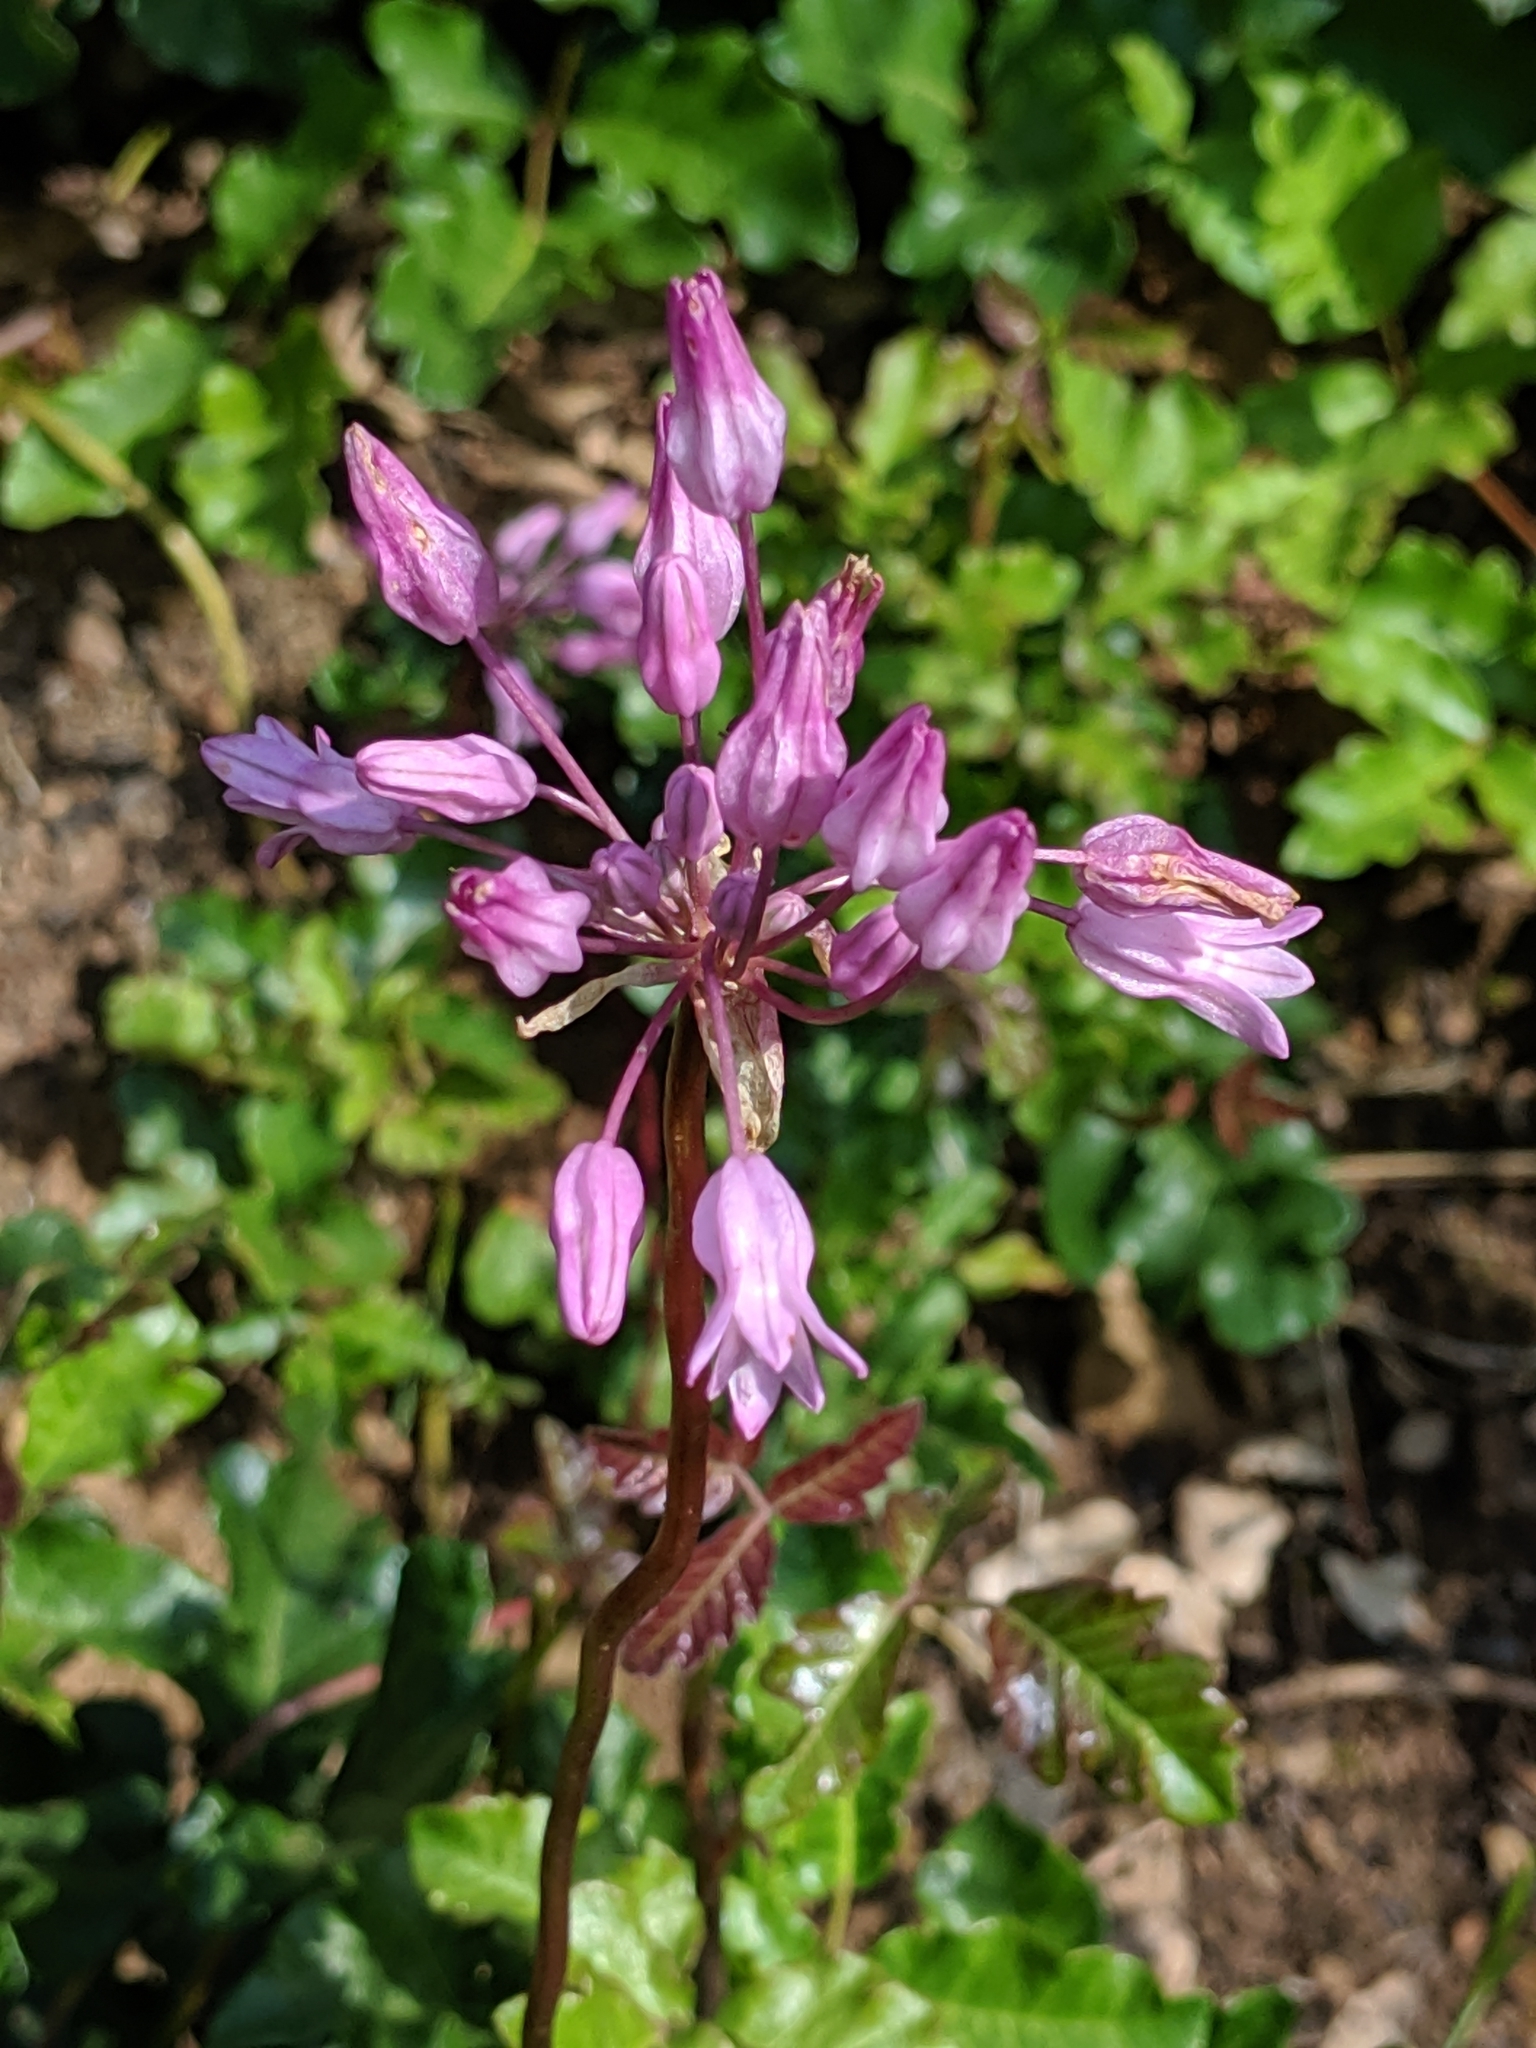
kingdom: Plantae
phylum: Tracheophyta
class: Liliopsida
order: Asparagales
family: Asparagaceae
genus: Dichelostemma
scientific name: Dichelostemma volubile
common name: Trining brodiaea
